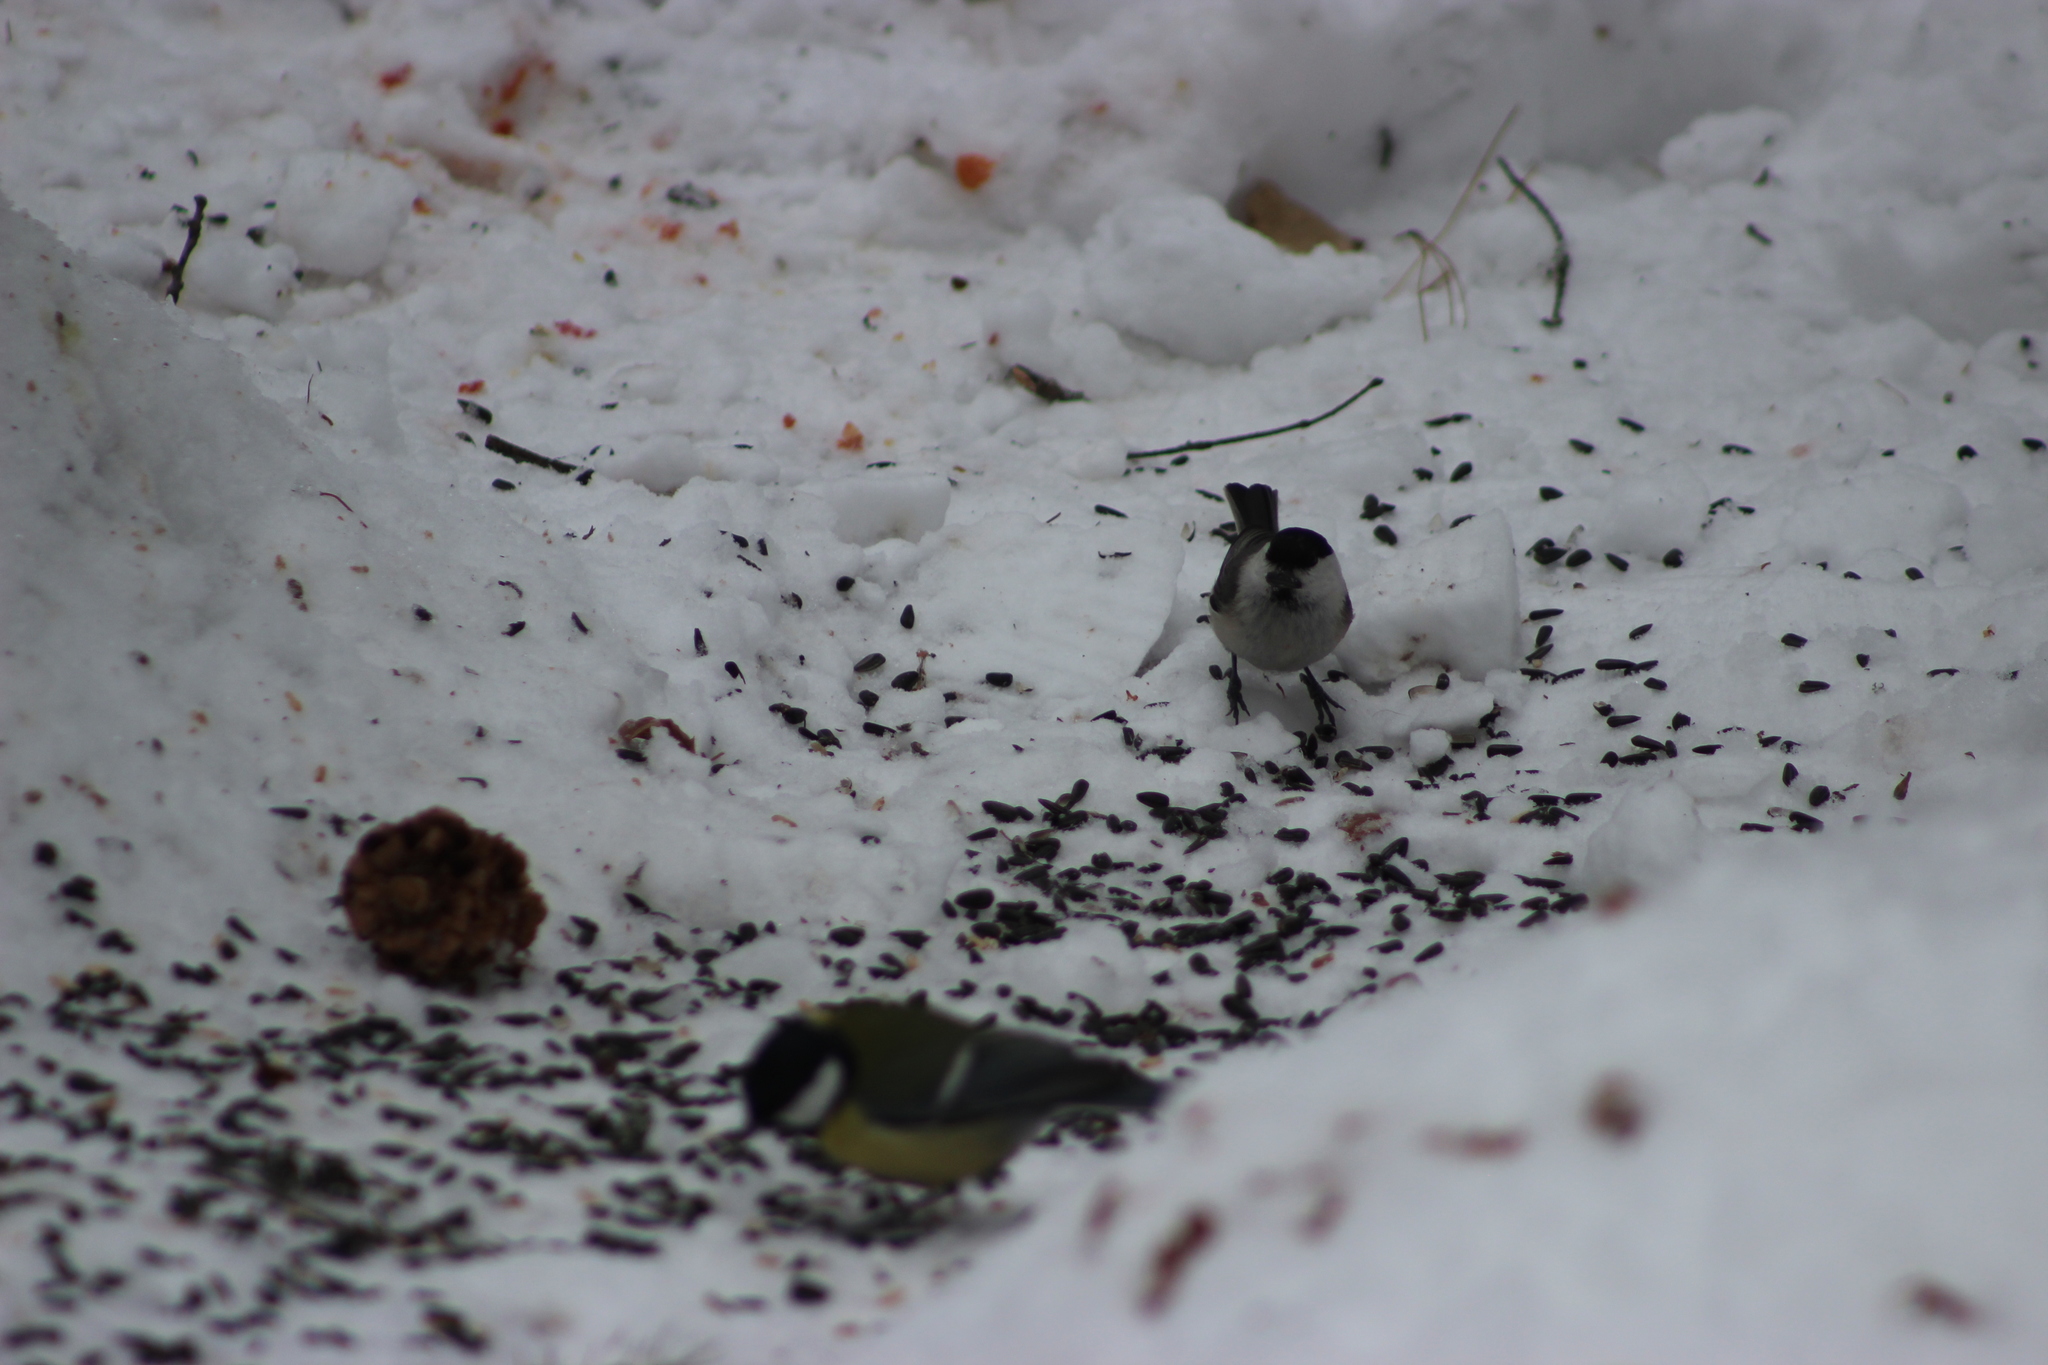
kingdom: Animalia
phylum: Chordata
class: Aves
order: Passeriformes
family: Paridae
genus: Poecile
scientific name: Poecile montanus
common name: Willow tit
